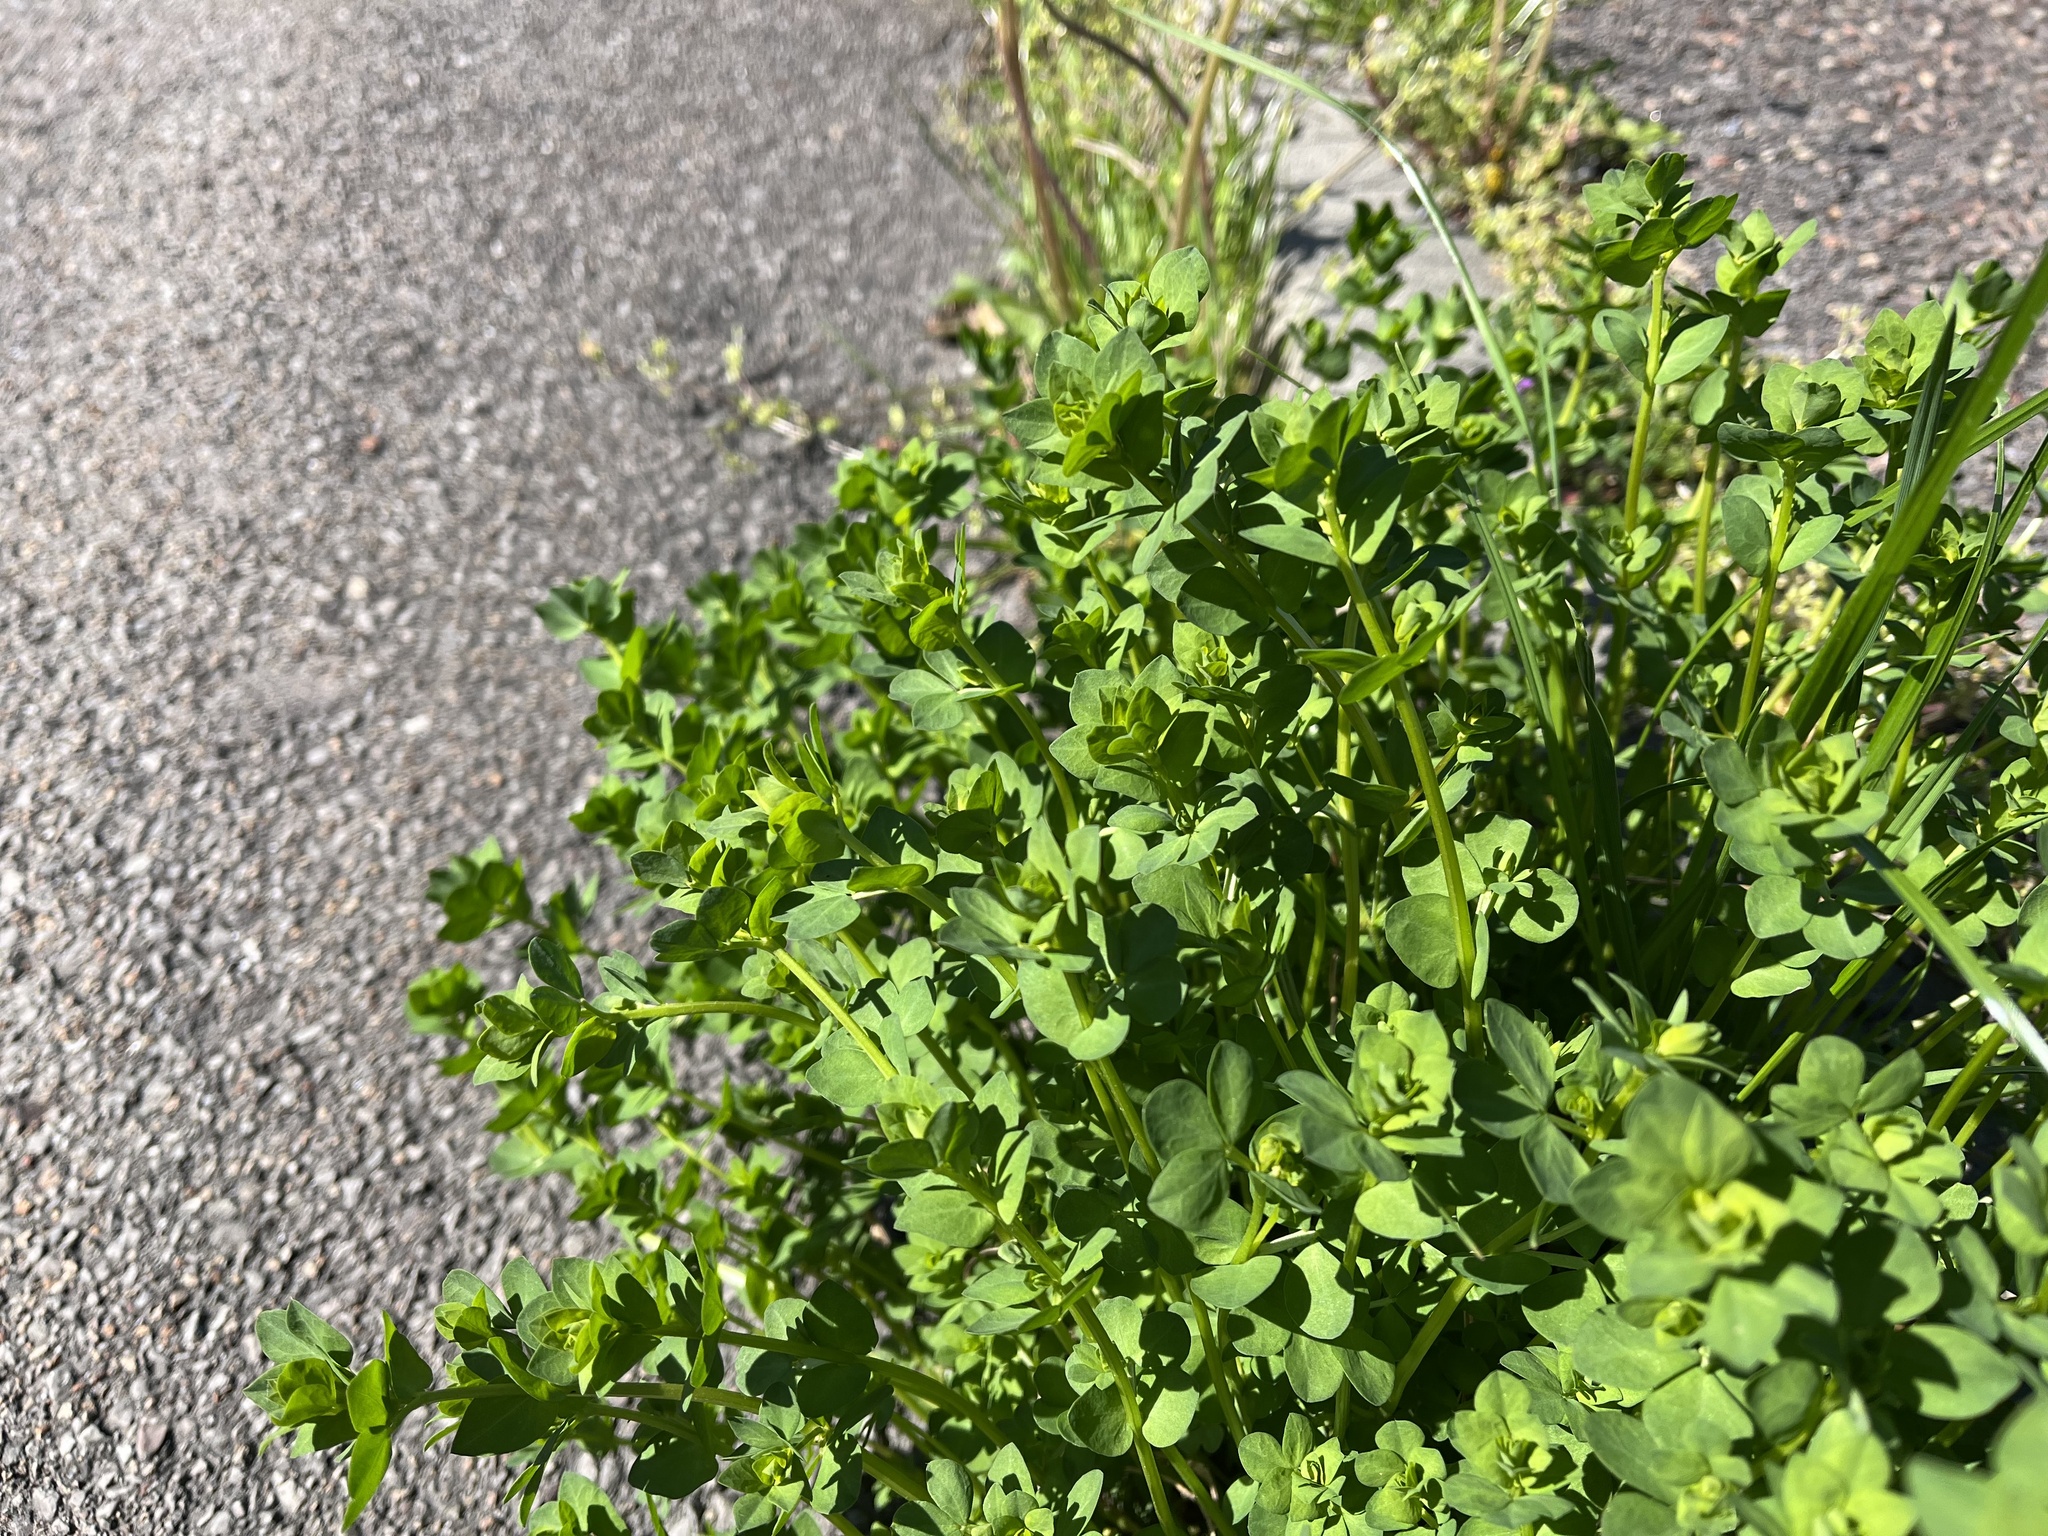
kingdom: Plantae
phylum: Tracheophyta
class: Magnoliopsida
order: Fabales
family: Fabaceae
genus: Lotus
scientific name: Lotus corniculatus
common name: Common bird's-foot-trefoil
